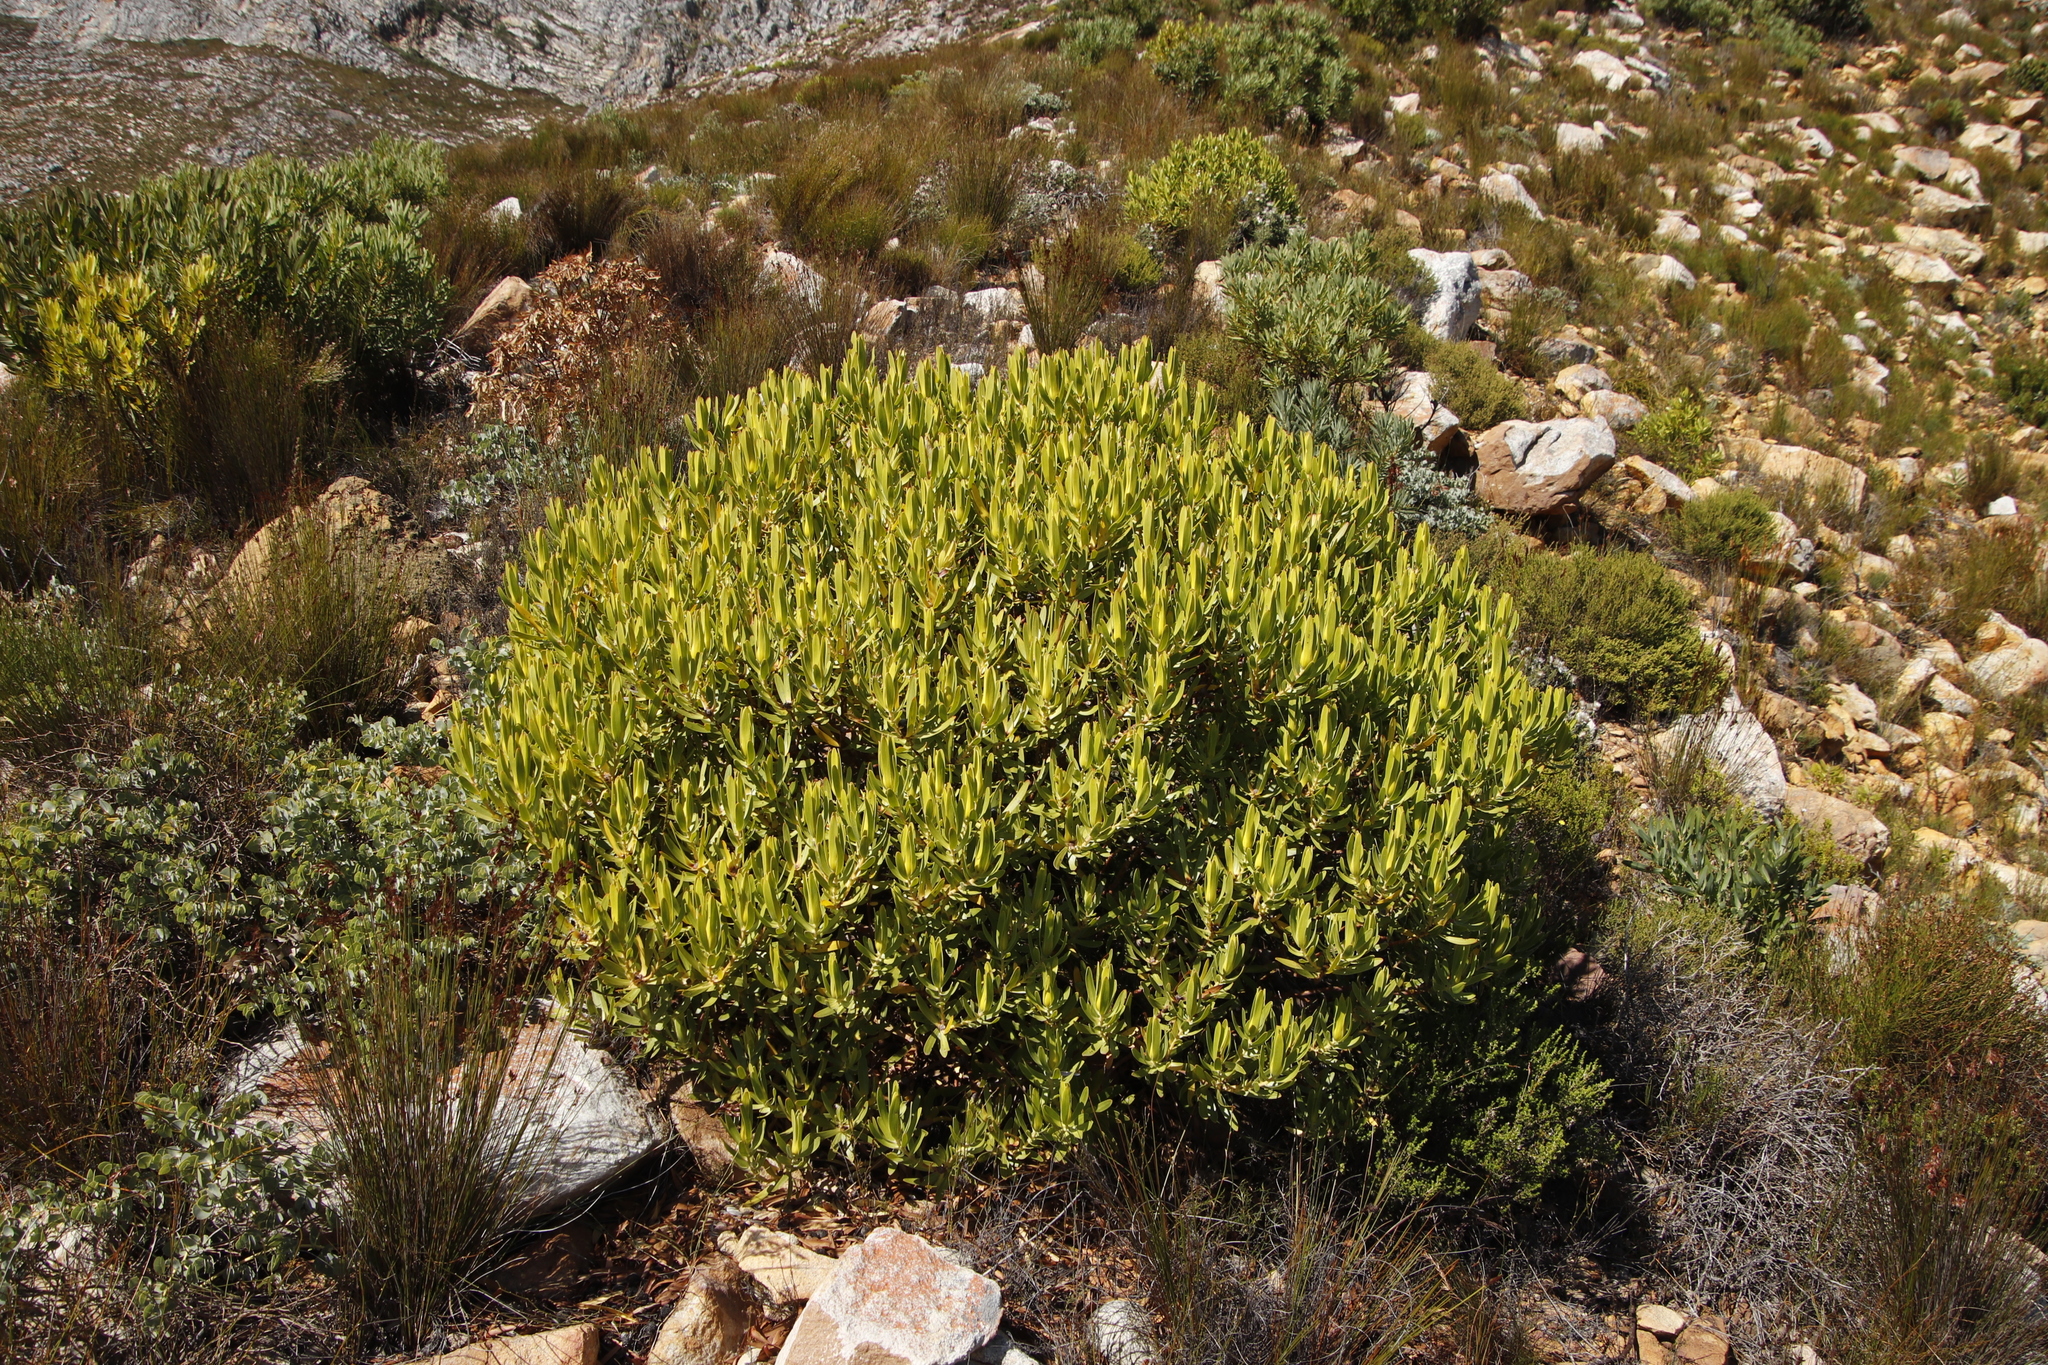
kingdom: Plantae
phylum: Tracheophyta
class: Magnoliopsida
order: Proteales
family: Proteaceae
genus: Leucadendron
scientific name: Leucadendron laureolum
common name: Golden sunshinebush
